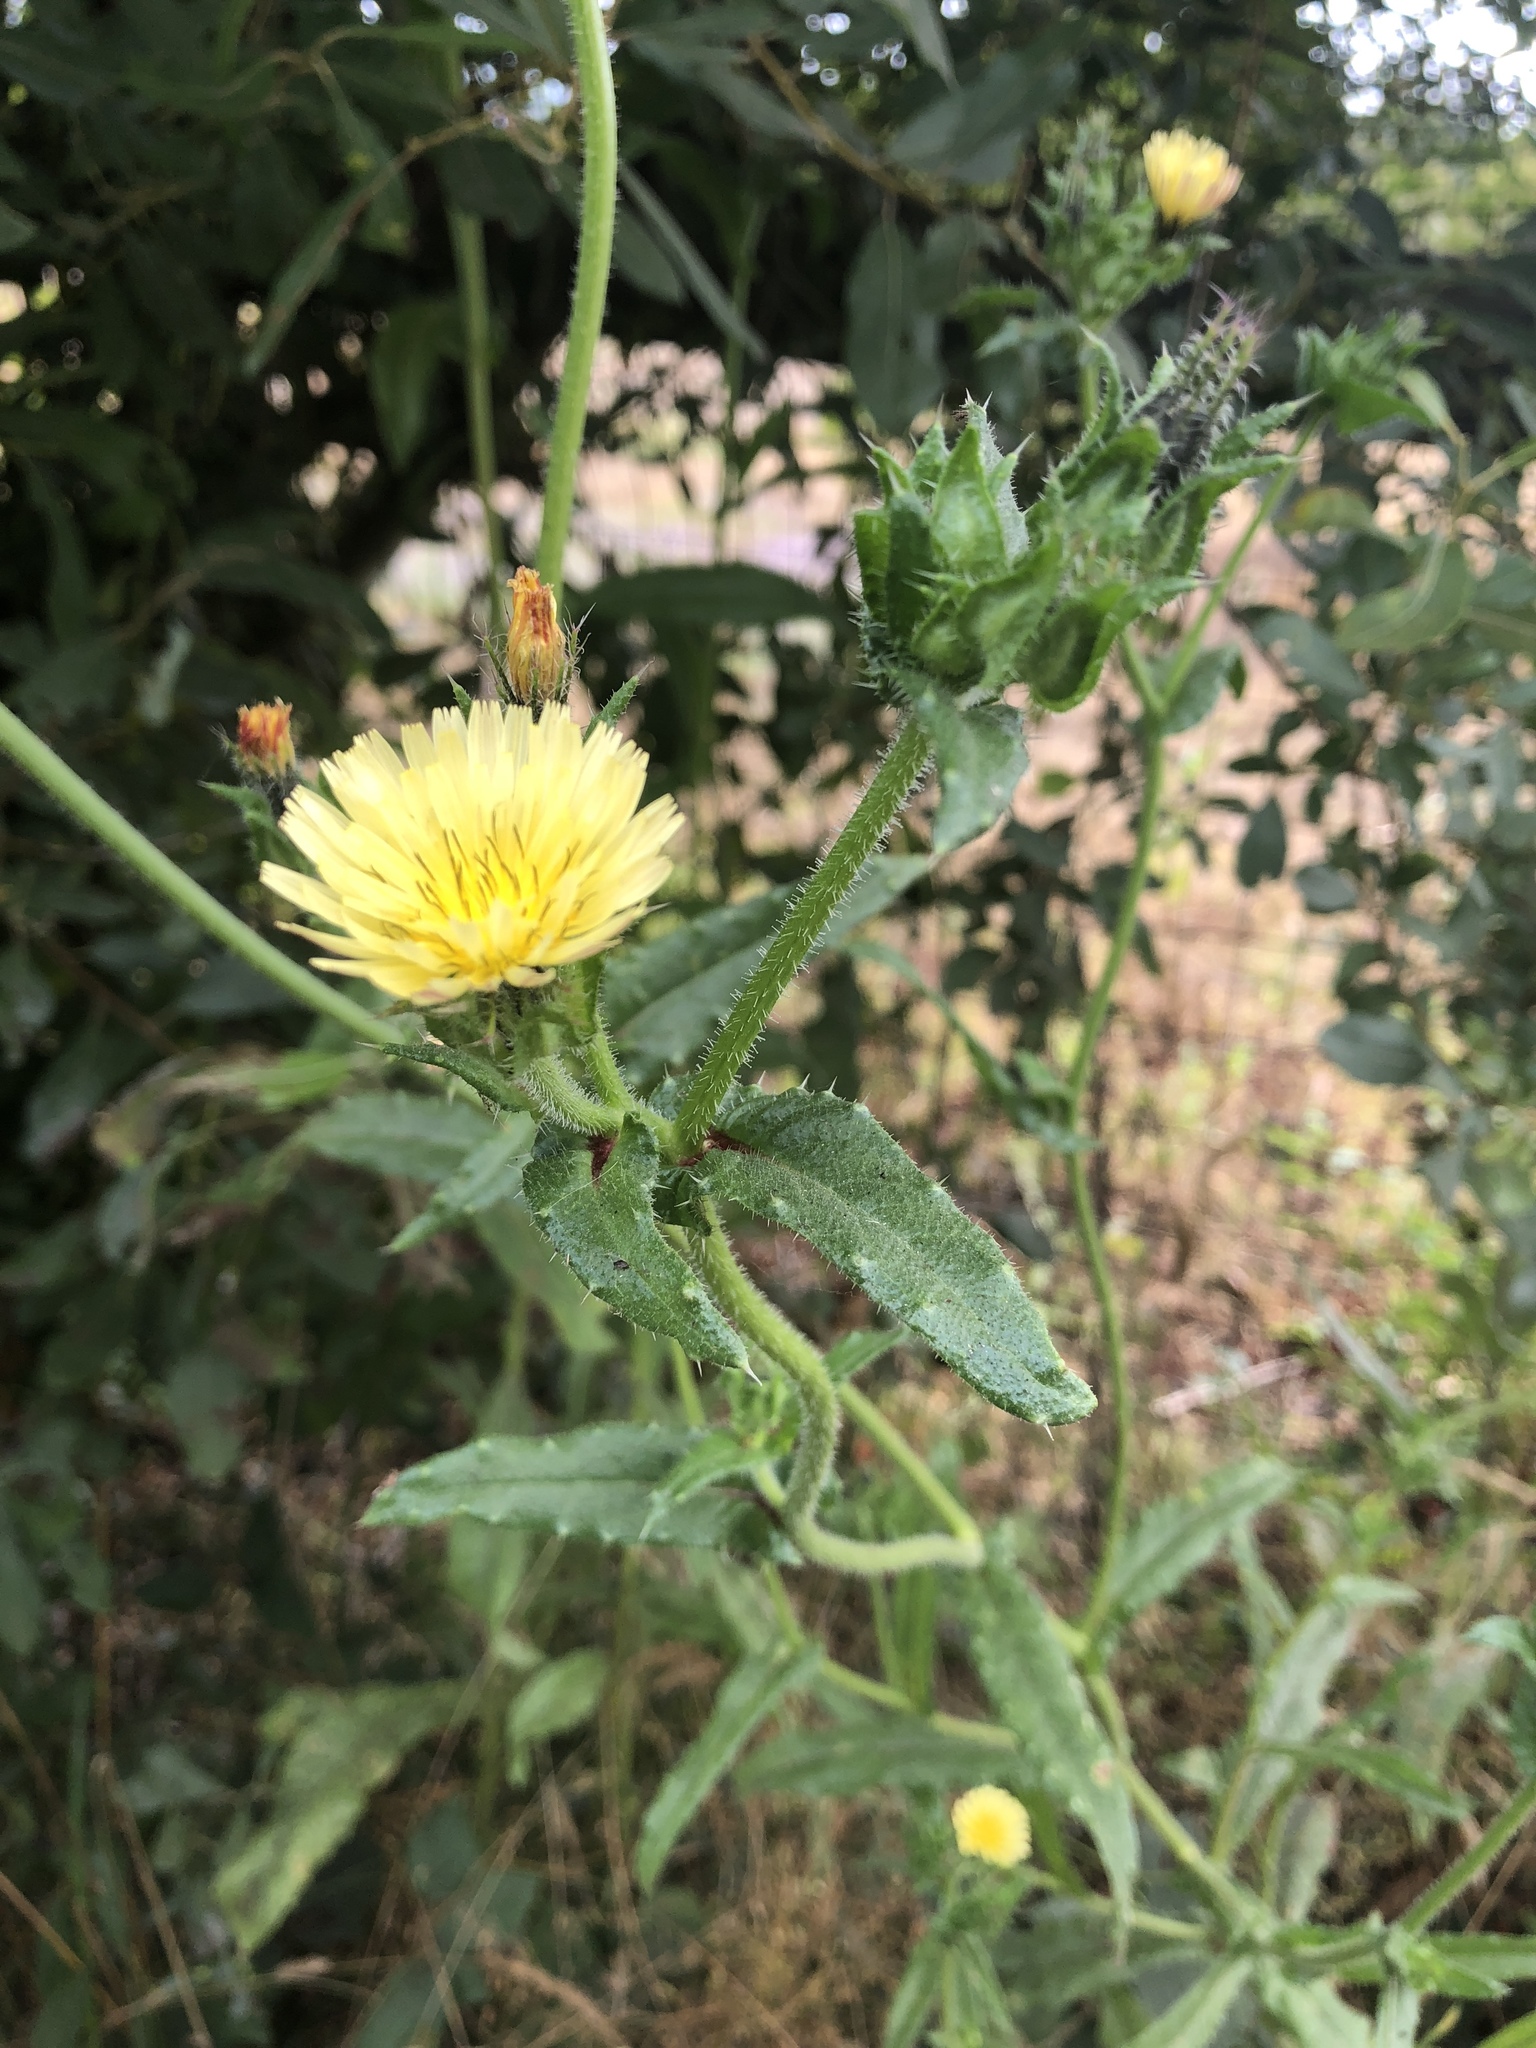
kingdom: Plantae
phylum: Tracheophyta
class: Magnoliopsida
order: Asterales
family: Asteraceae
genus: Helminthotheca
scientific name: Helminthotheca echioides
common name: Ox-tongue
